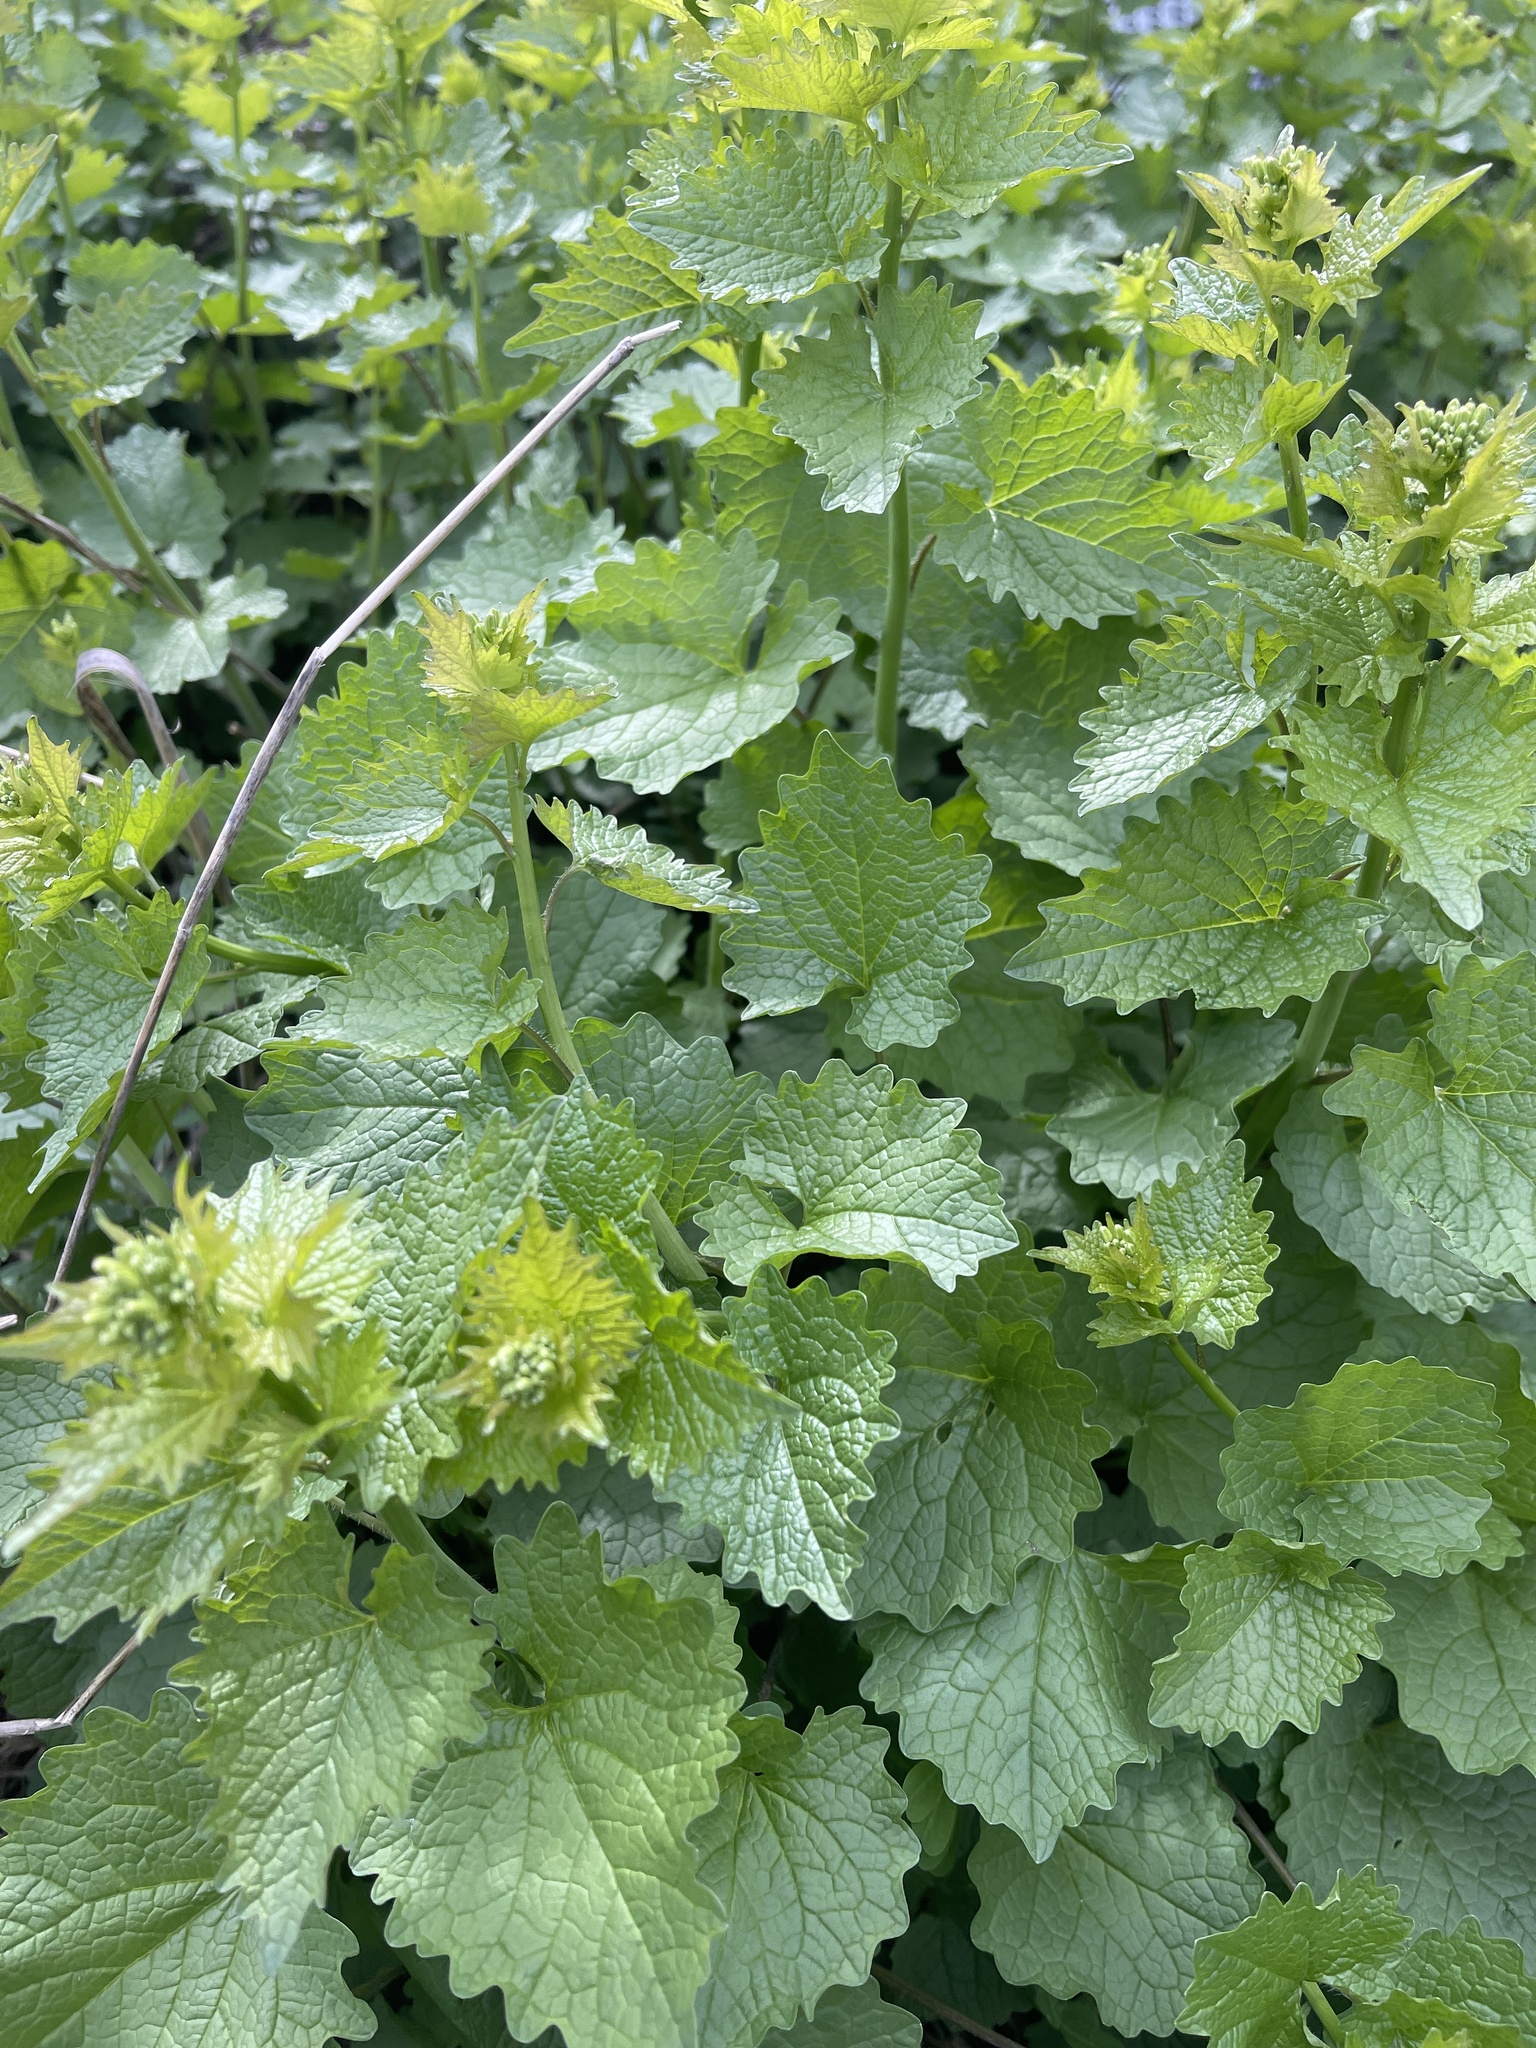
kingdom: Plantae
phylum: Tracheophyta
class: Magnoliopsida
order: Brassicales
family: Brassicaceae
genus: Alliaria
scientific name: Alliaria petiolata
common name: Garlic mustard
